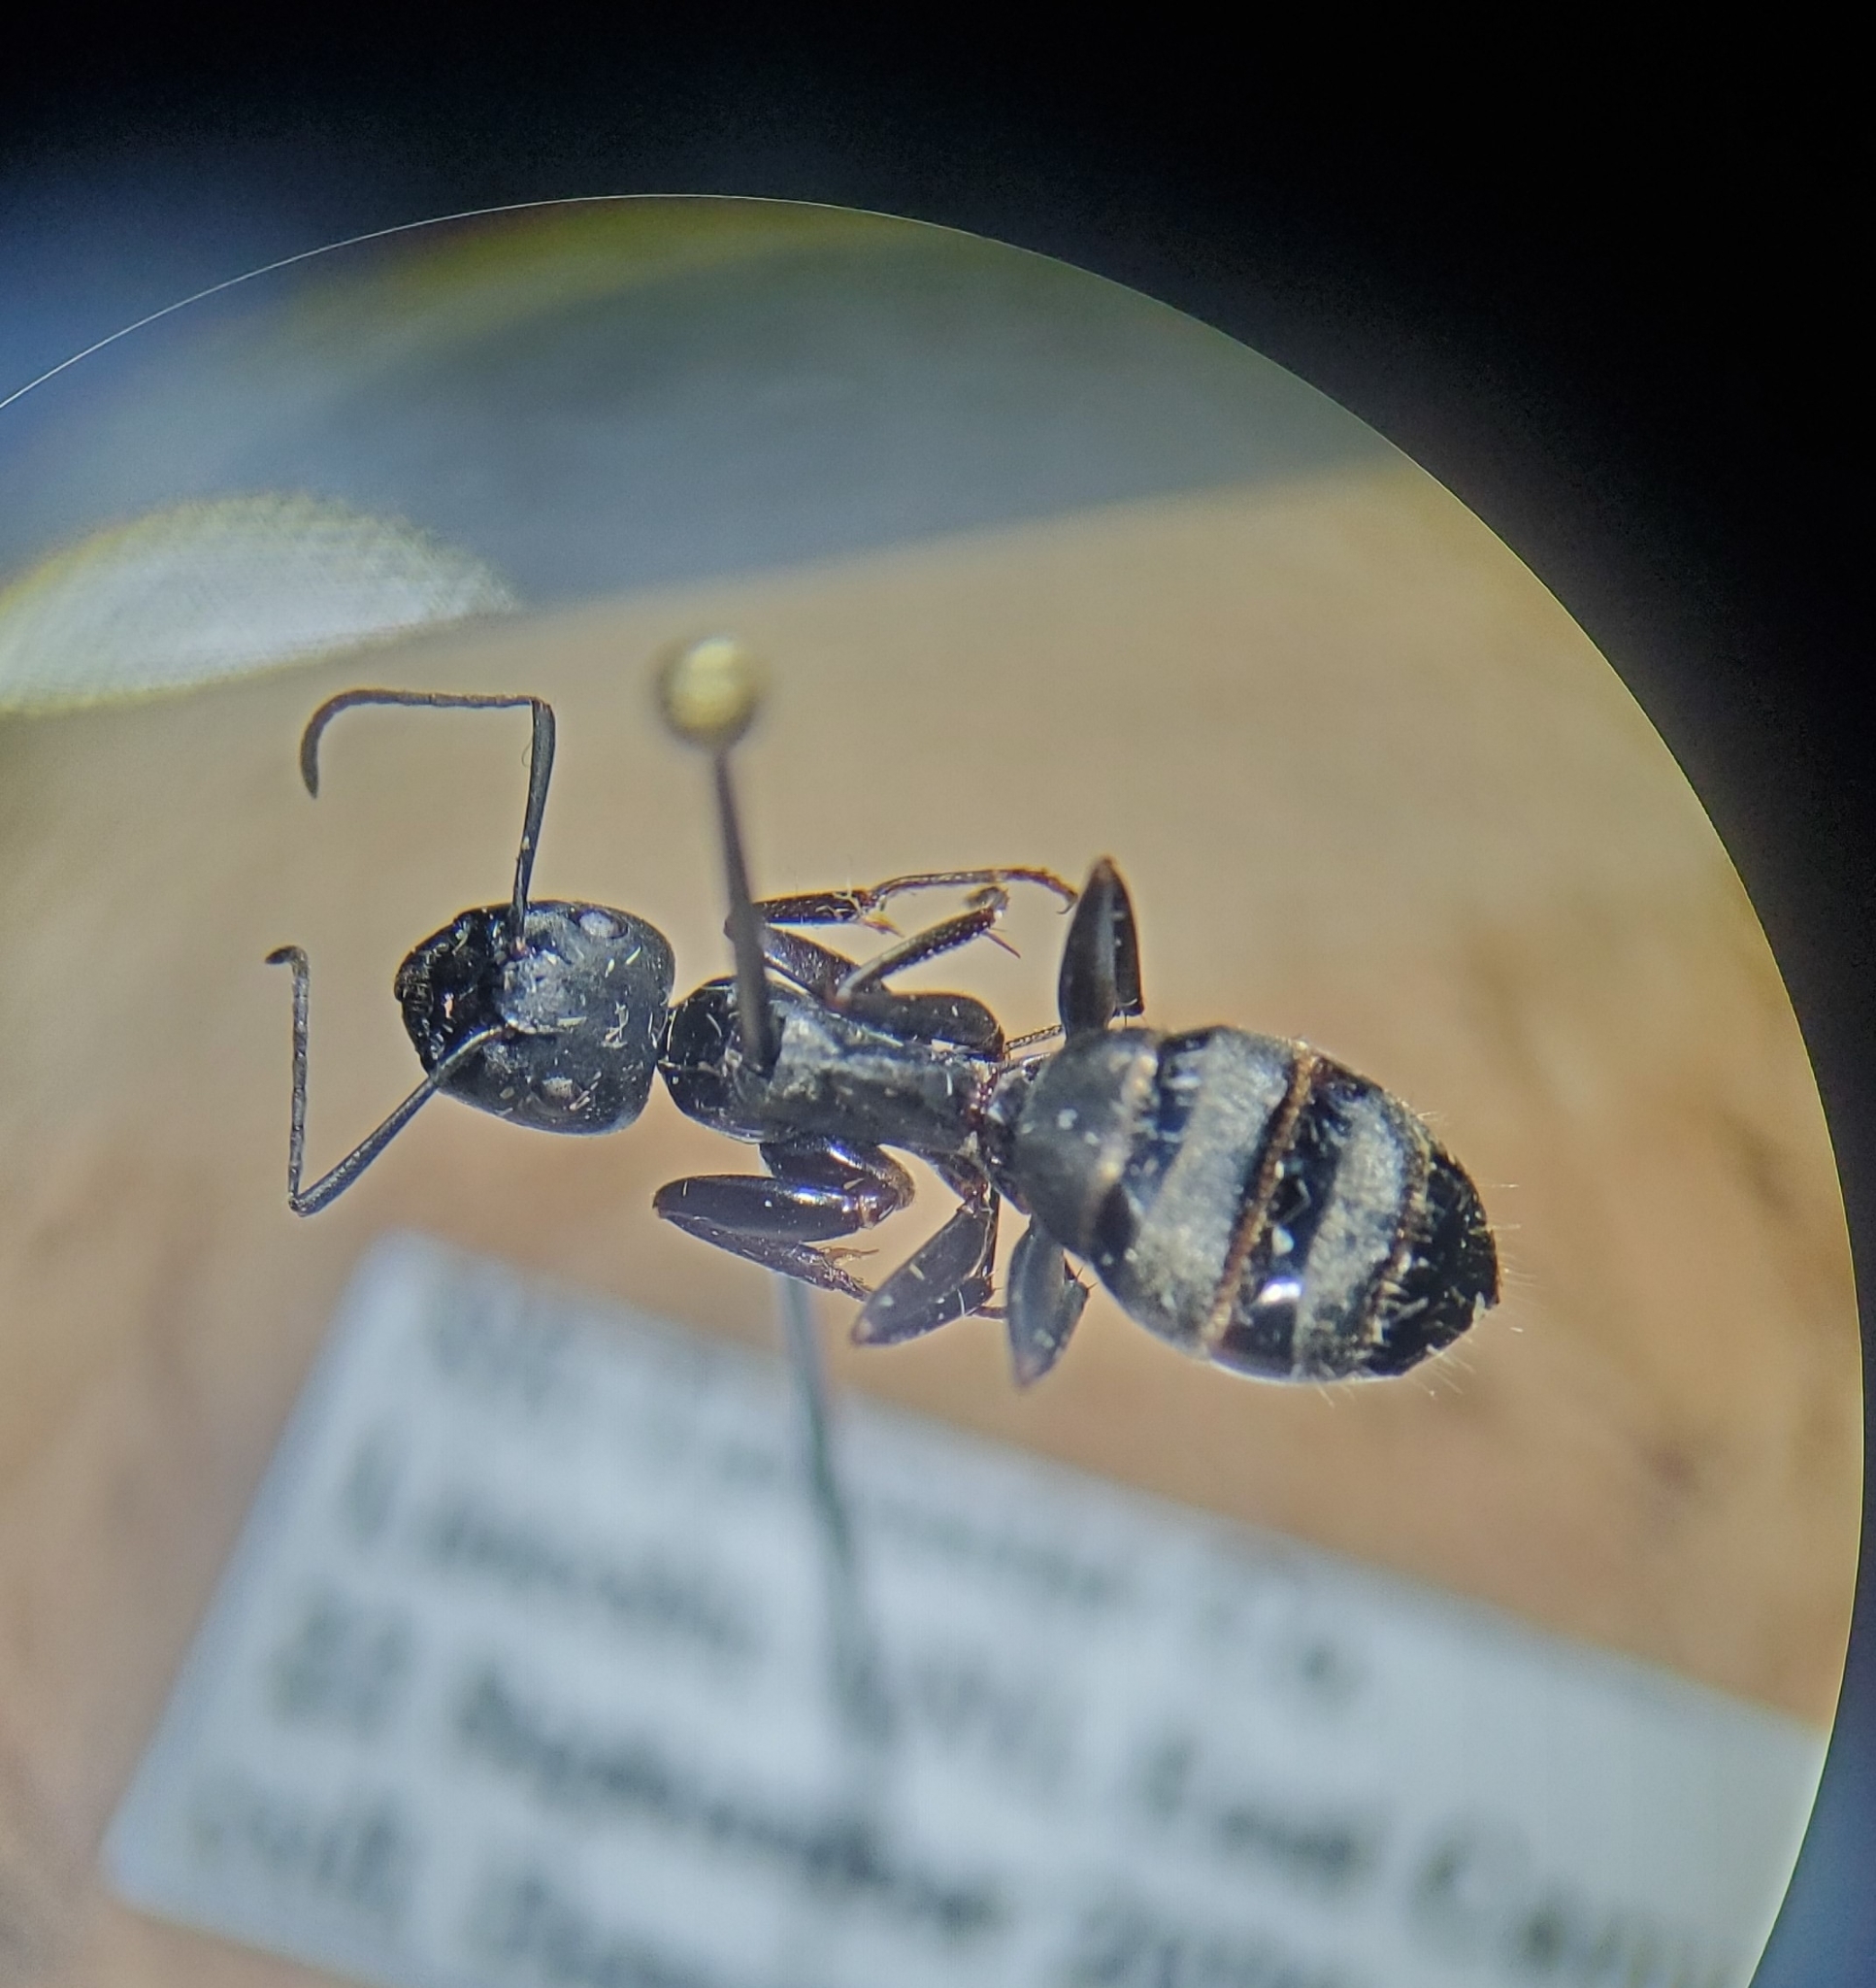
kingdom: Animalia
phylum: Arthropoda
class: Insecta
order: Hymenoptera
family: Formicidae
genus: Camponotus
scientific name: Camponotus pennsylvanicus
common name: Black carpenter ant
